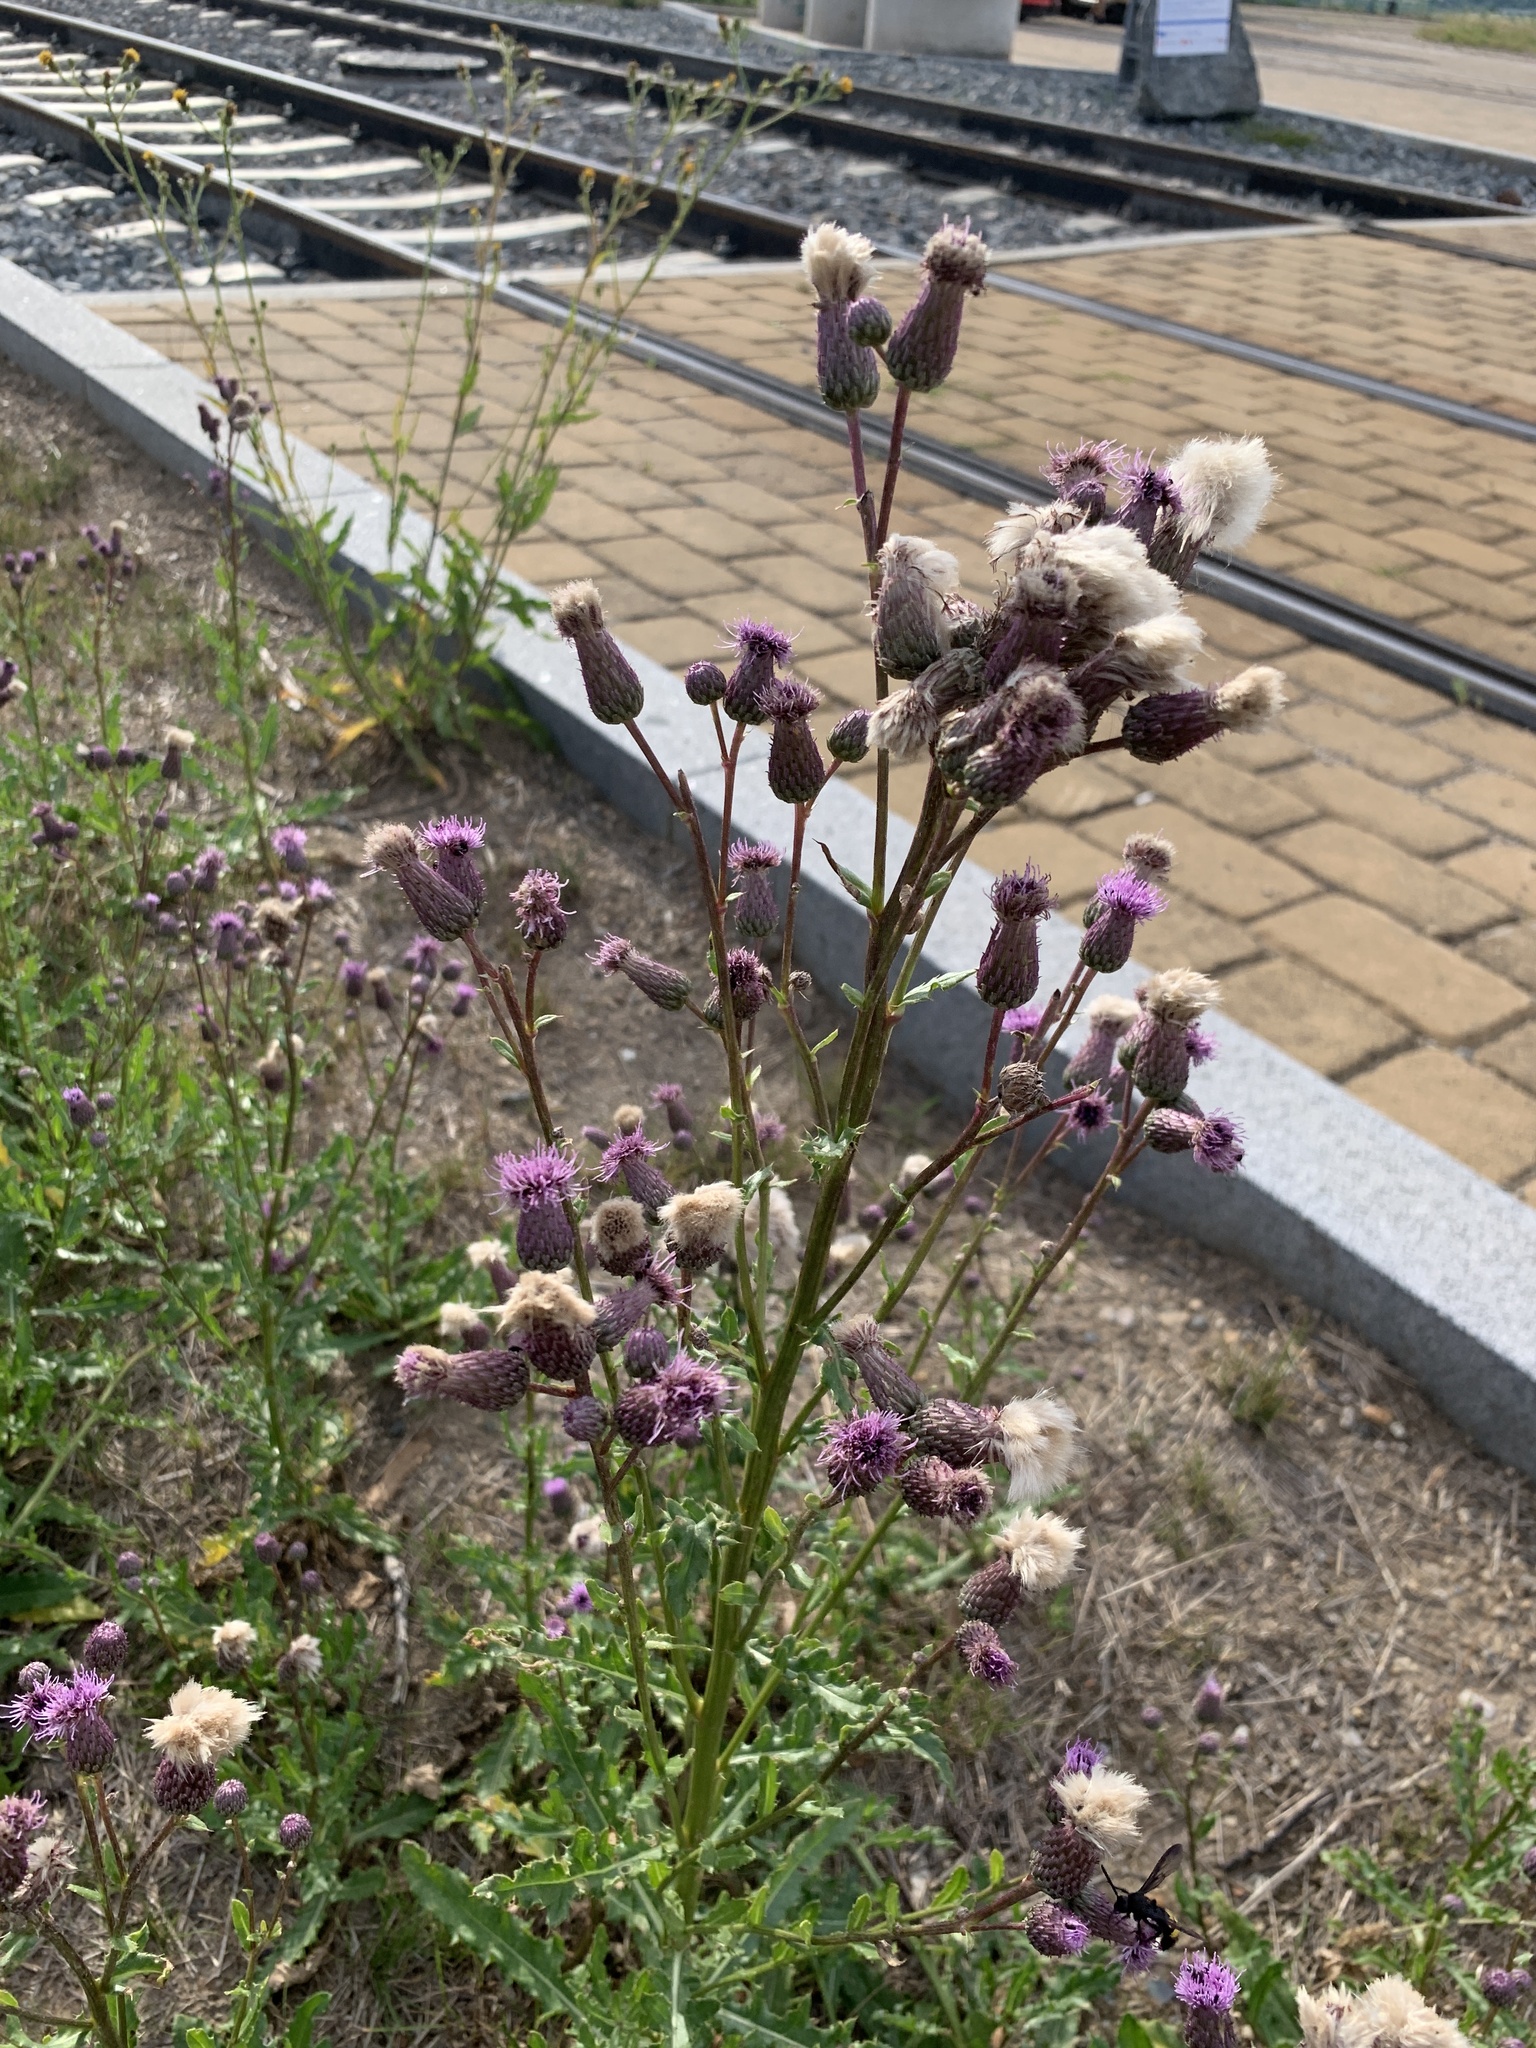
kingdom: Plantae
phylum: Tracheophyta
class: Magnoliopsida
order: Asterales
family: Asteraceae
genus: Cirsium
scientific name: Cirsium arvense
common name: Creeping thistle
